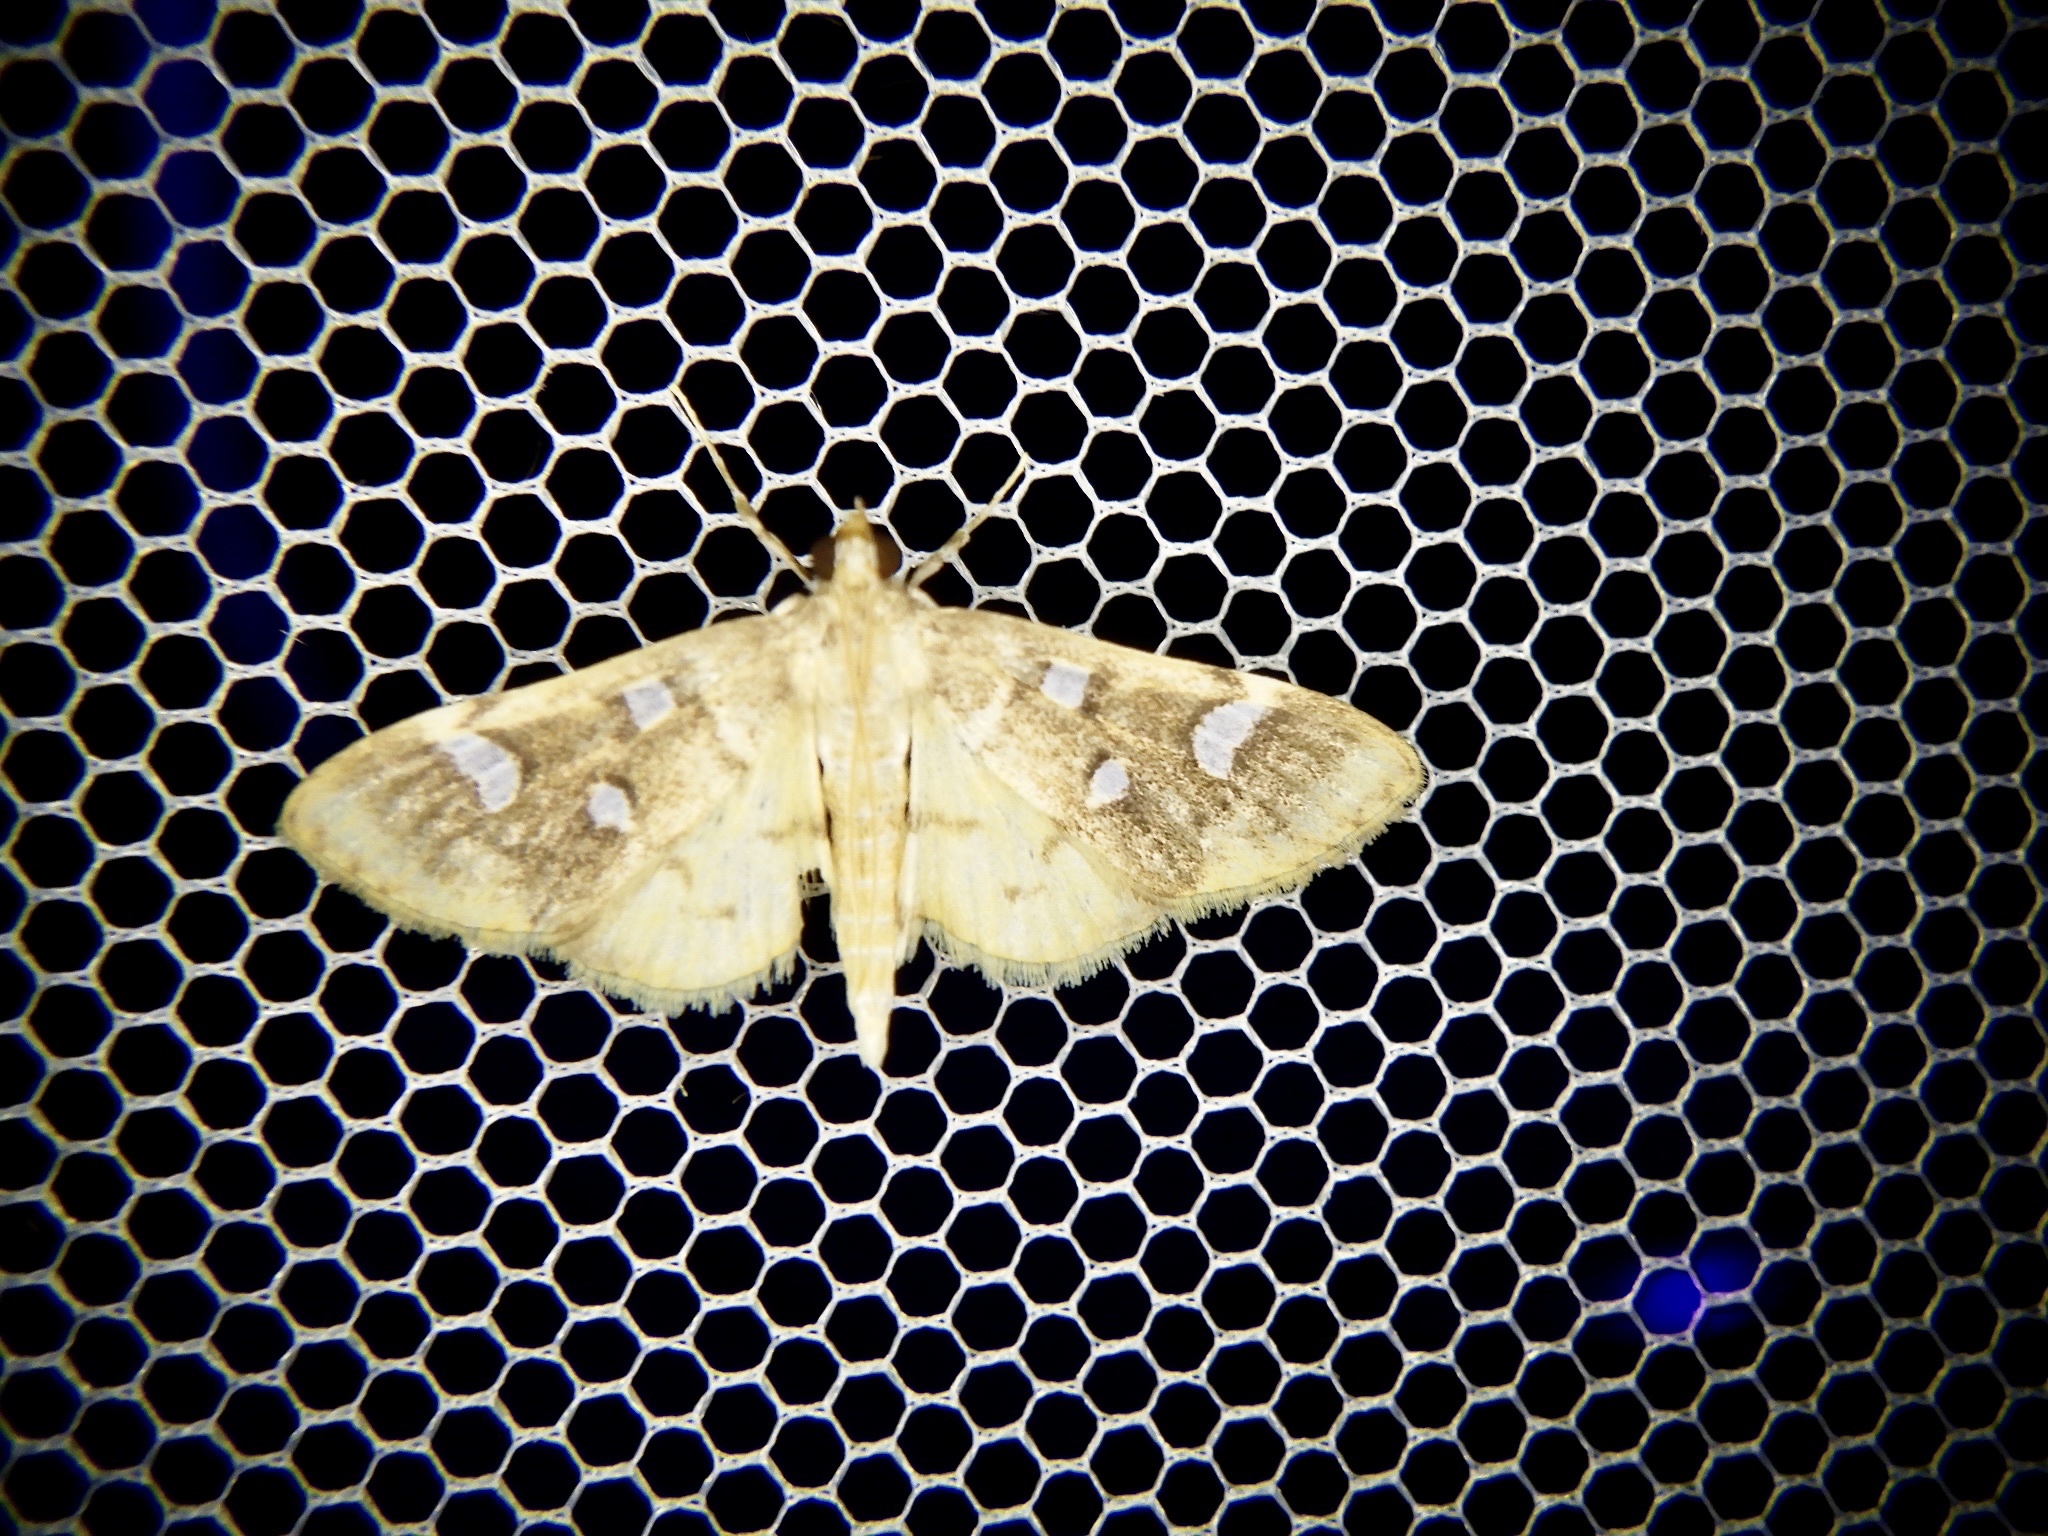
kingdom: Animalia
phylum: Arthropoda
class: Insecta
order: Lepidoptera
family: Crambidae
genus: Cotachena
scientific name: Cotachena alysoni
